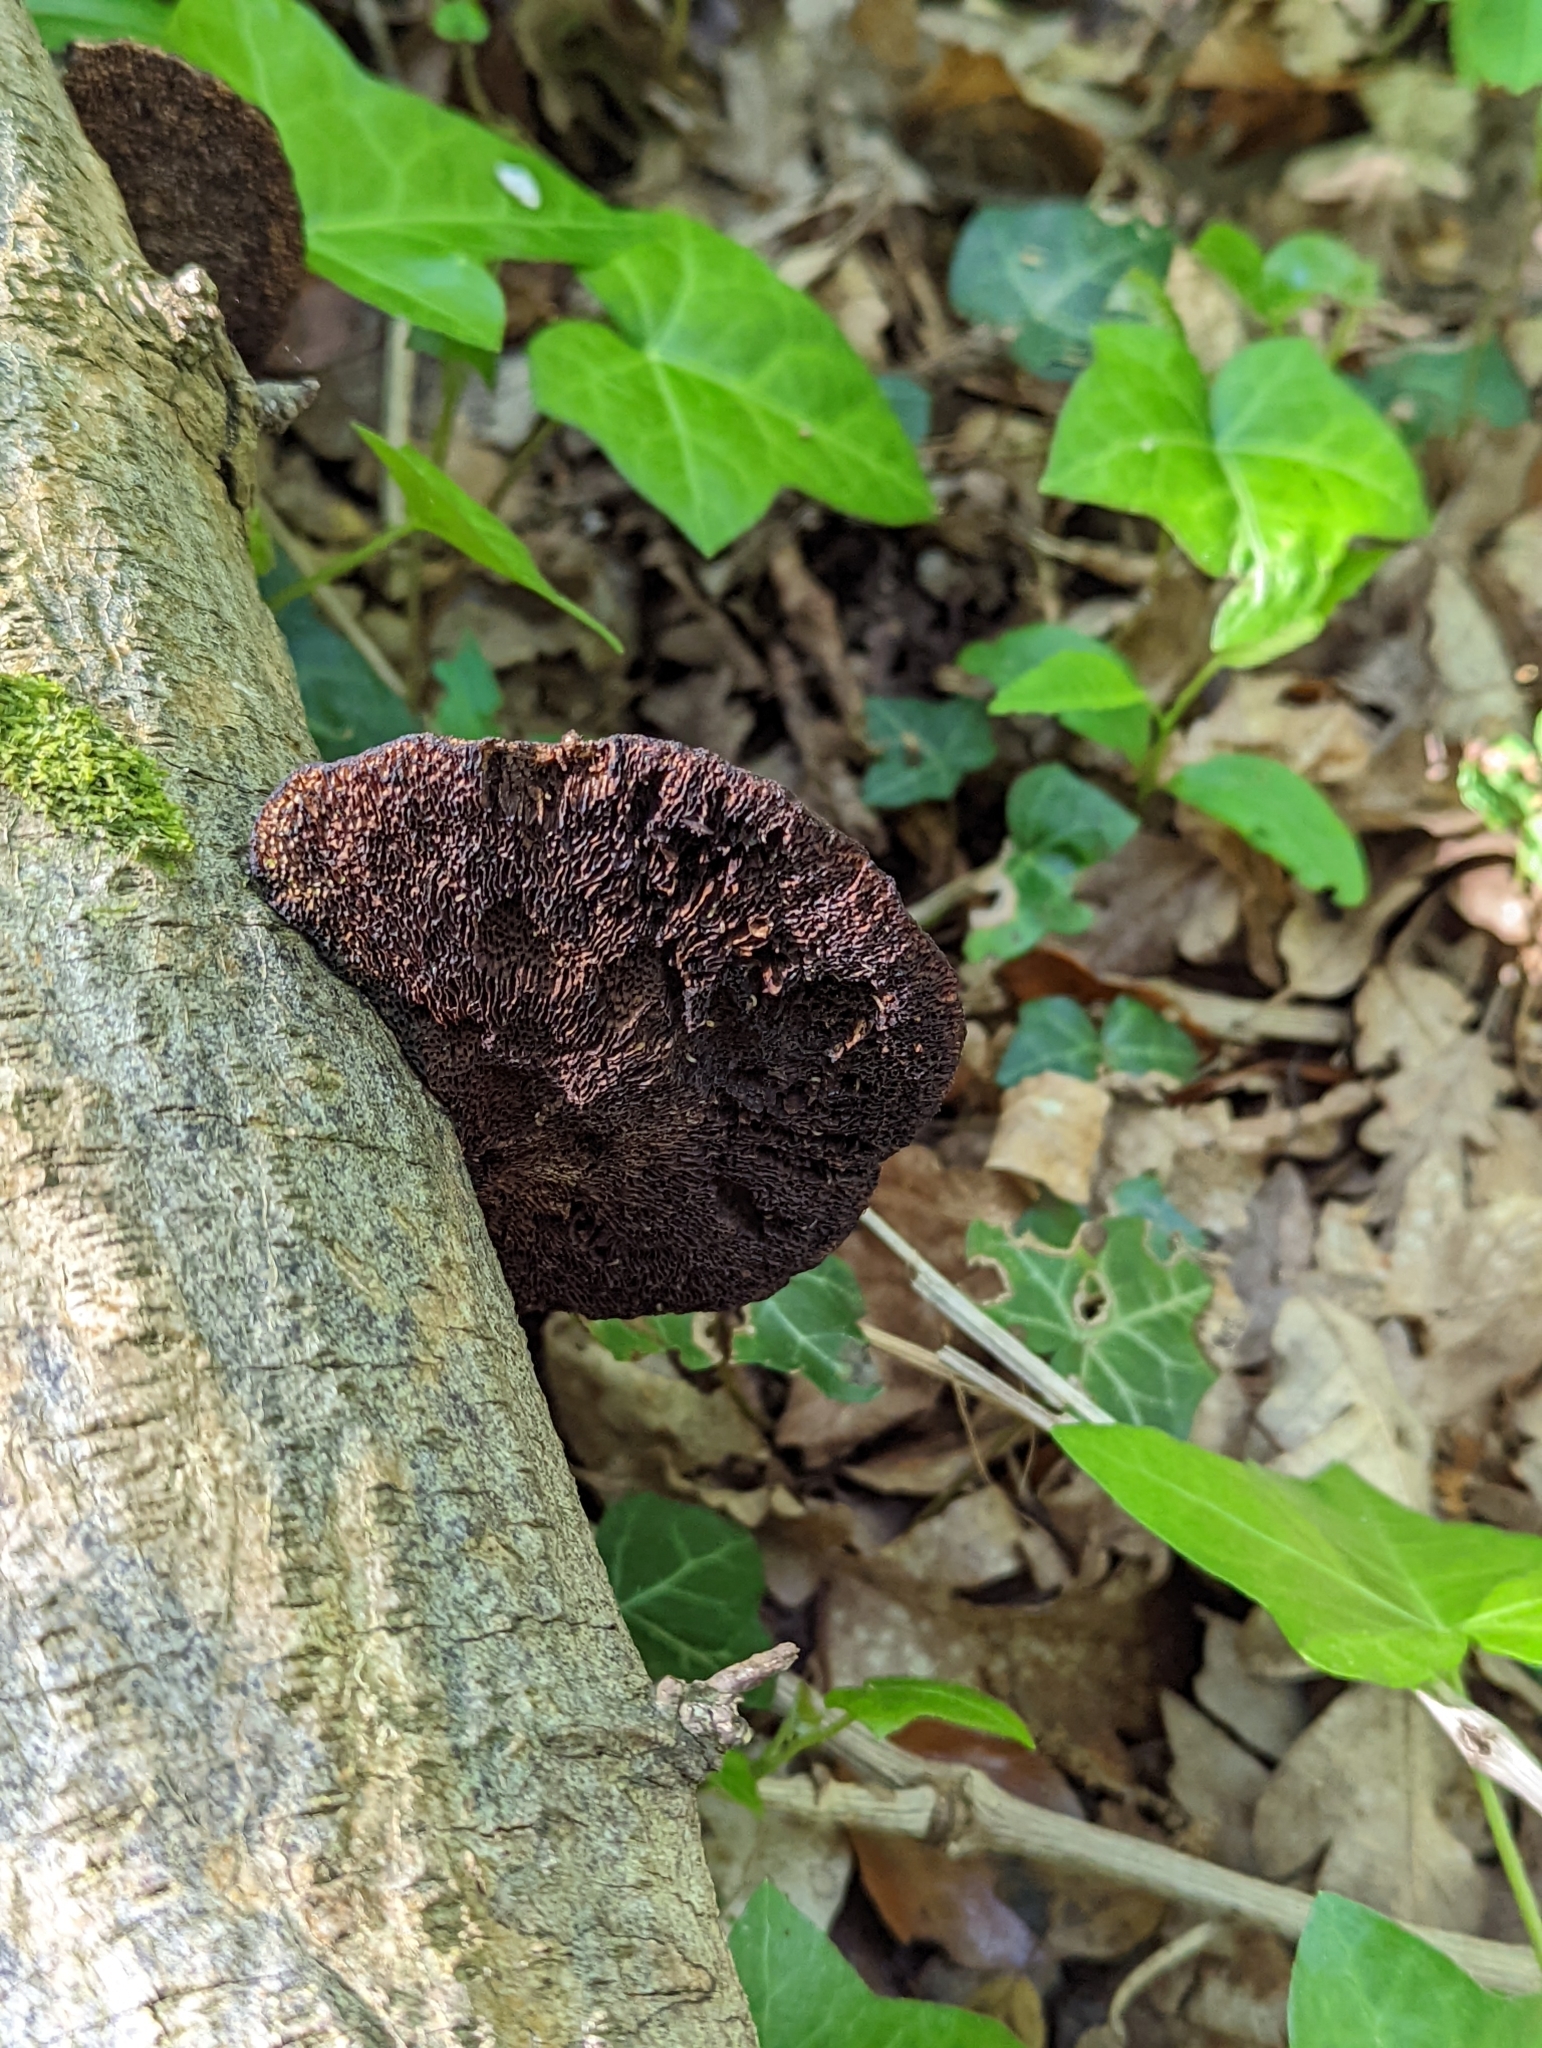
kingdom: Fungi
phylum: Basidiomycota
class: Agaricomycetes
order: Polyporales
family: Polyporaceae
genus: Daedaleopsis
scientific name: Daedaleopsis confragosa
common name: Blushing bracket
